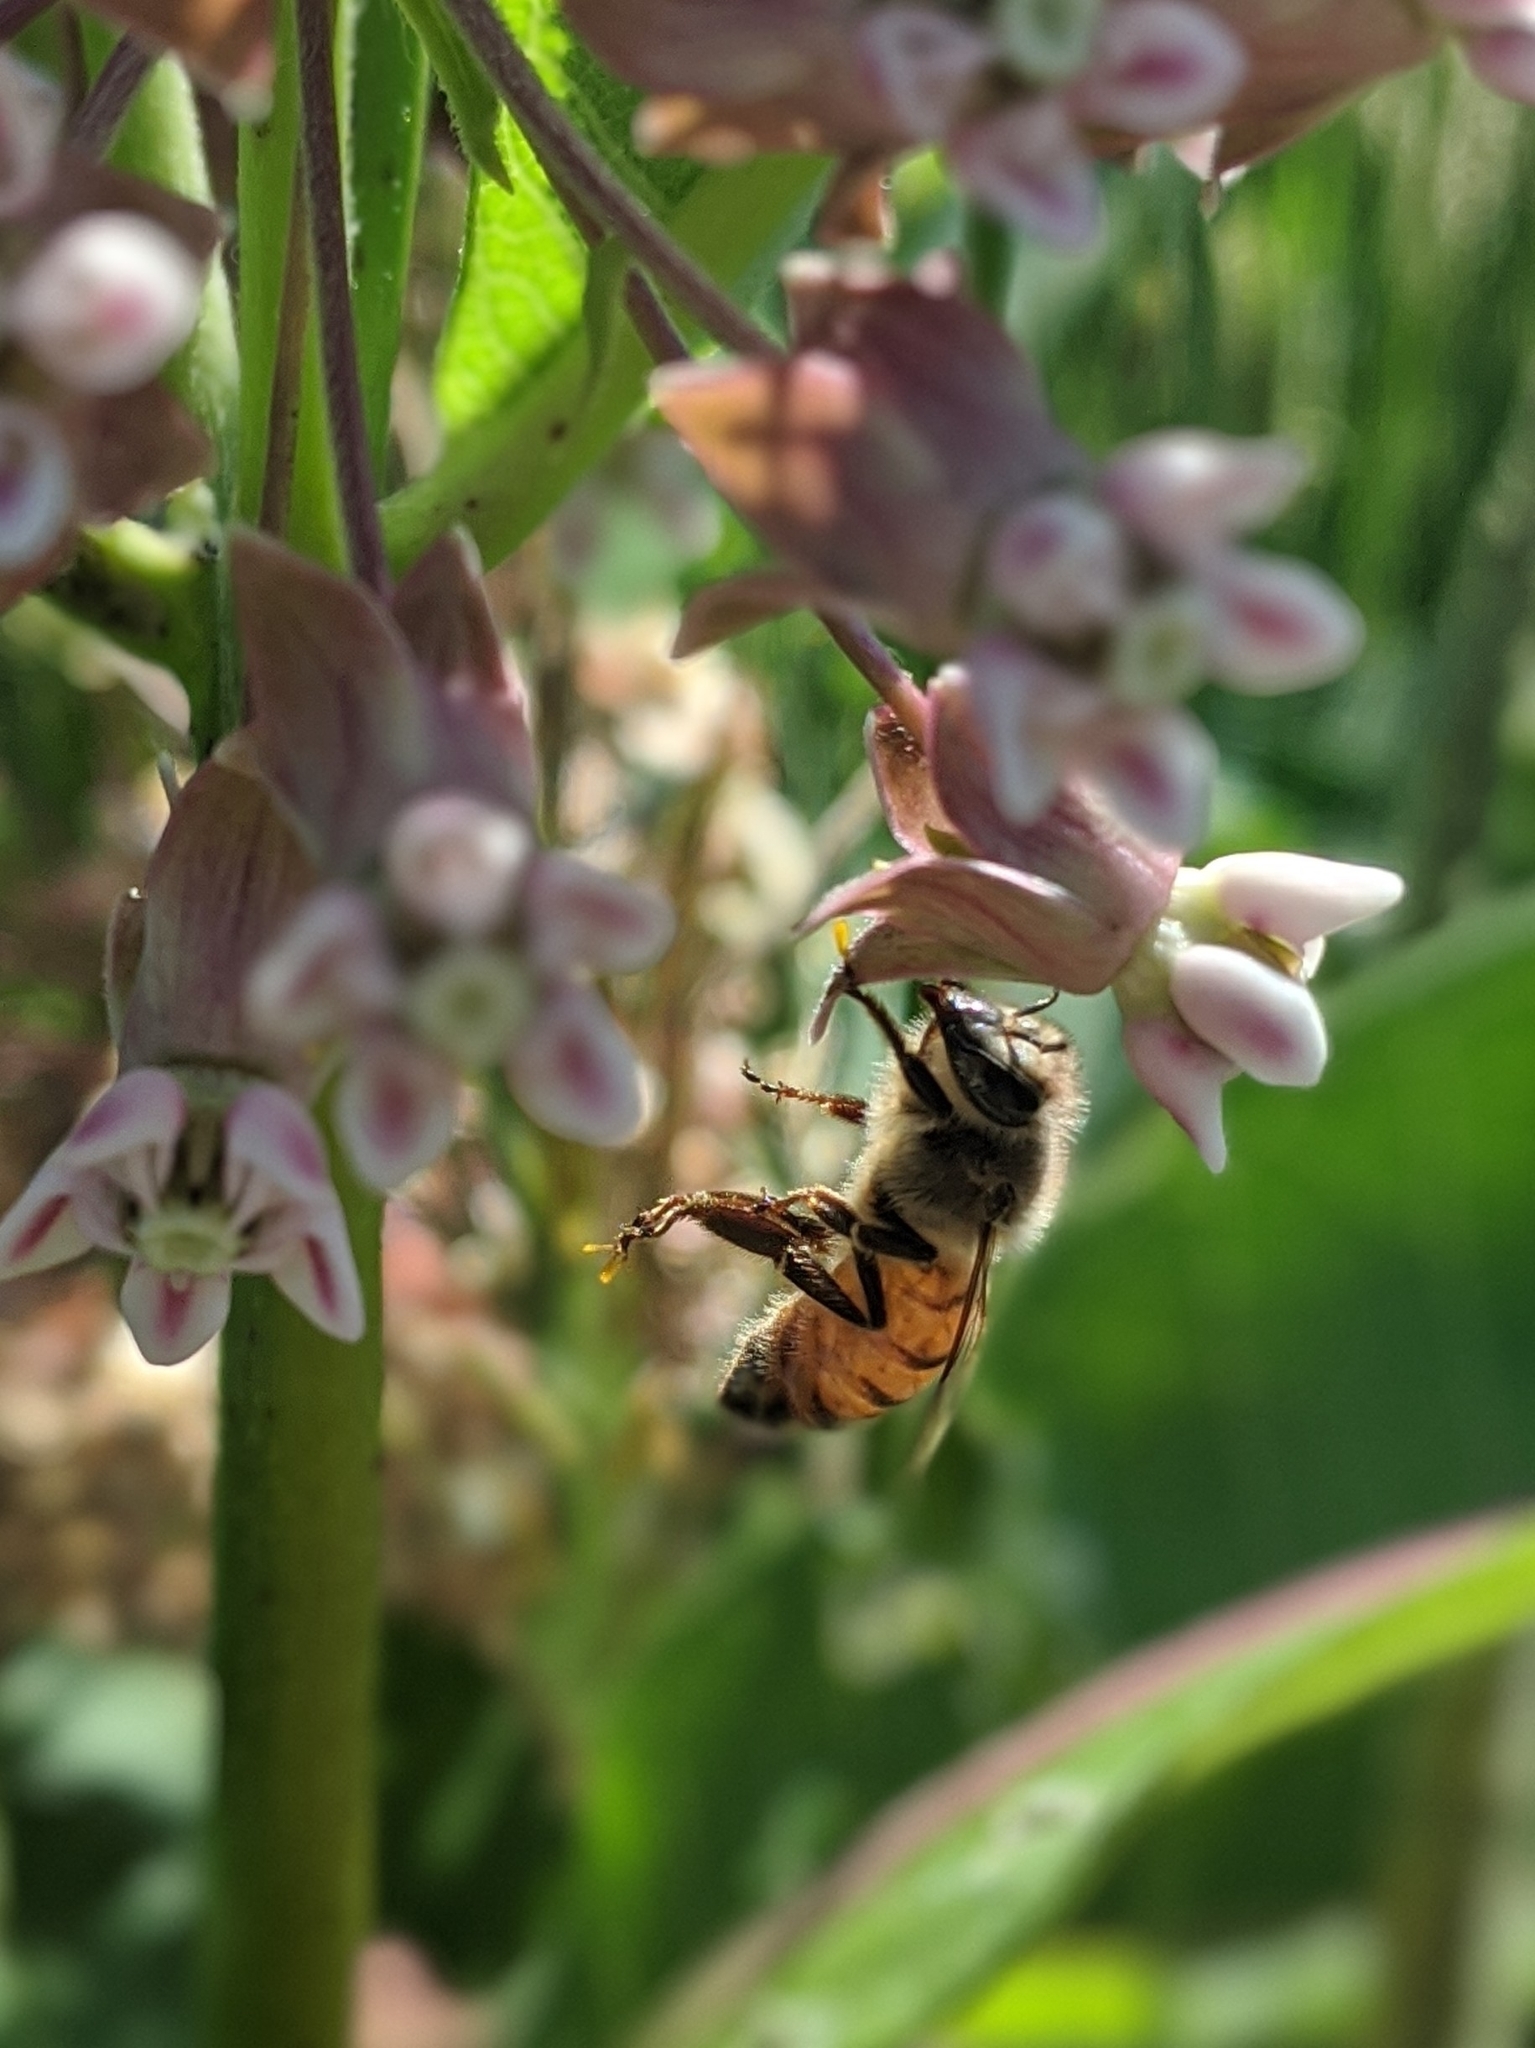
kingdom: Animalia
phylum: Arthropoda
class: Insecta
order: Hymenoptera
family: Apidae
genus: Apis
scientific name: Apis mellifera
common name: Honey bee
